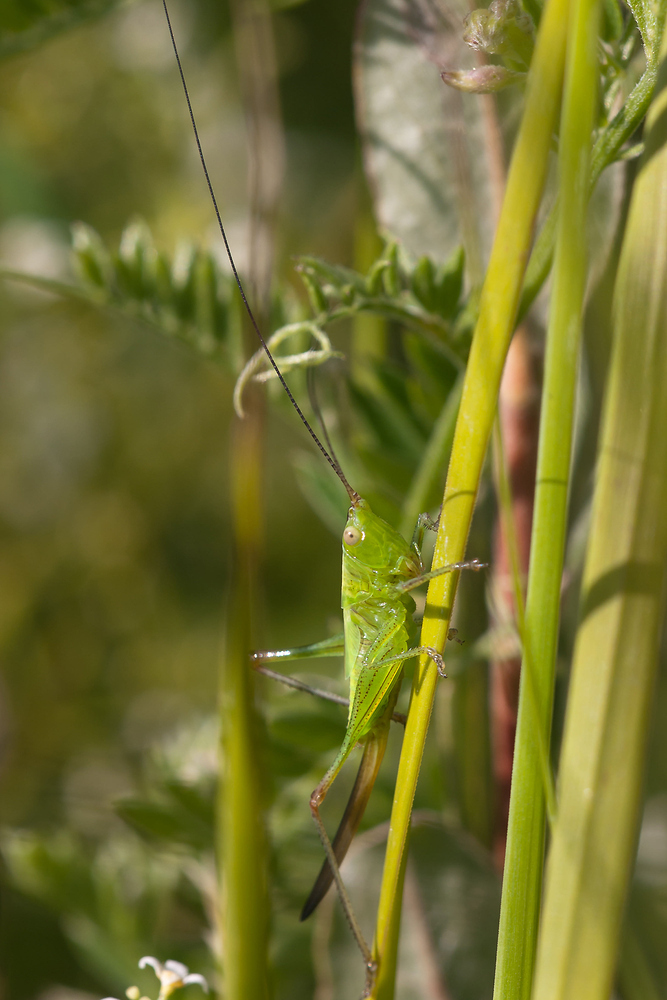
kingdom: Animalia
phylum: Arthropoda
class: Insecta
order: Orthoptera
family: Tettigoniidae
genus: Conocephalus
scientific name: Conocephalus fuscus
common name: Long-winged conehead
